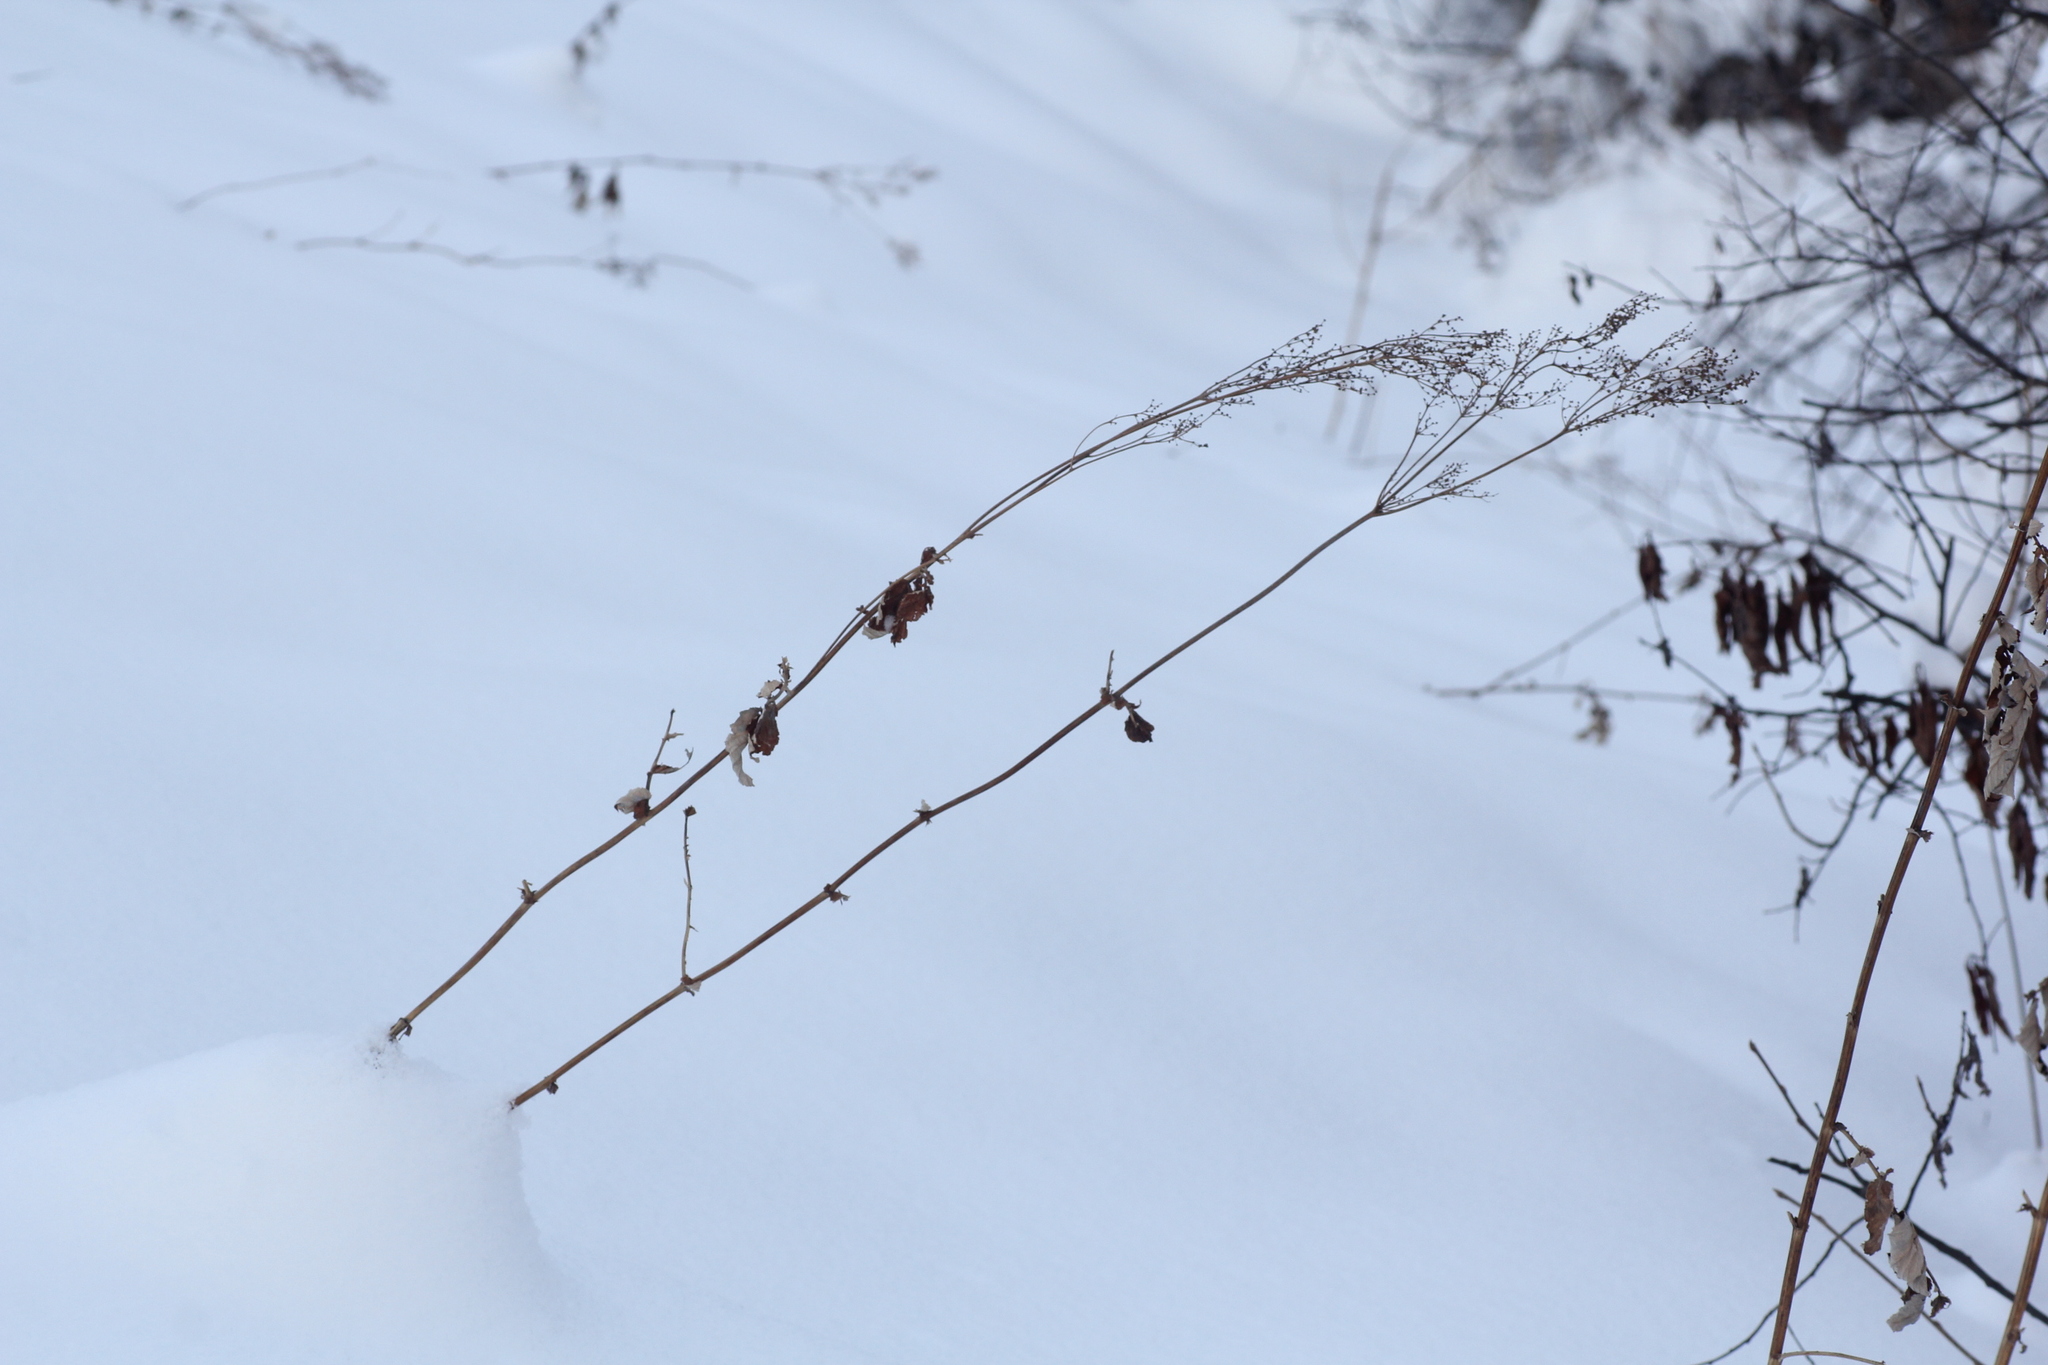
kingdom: Plantae
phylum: Tracheophyta
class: Magnoliopsida
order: Rosales
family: Rosaceae
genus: Filipendula
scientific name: Filipendula ulmaria
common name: Meadowsweet
